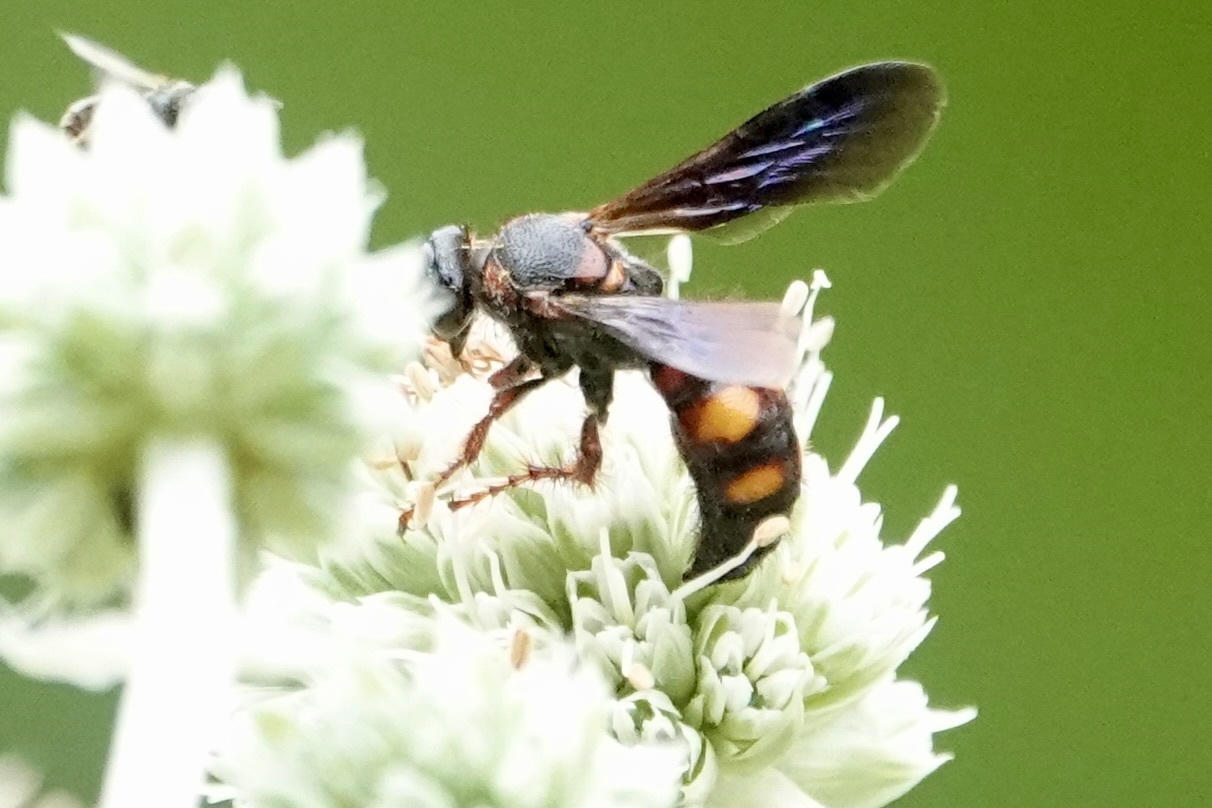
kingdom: Animalia
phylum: Arthropoda
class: Insecta
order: Hymenoptera
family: Scoliidae
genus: Scolia
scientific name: Scolia nobilitata
